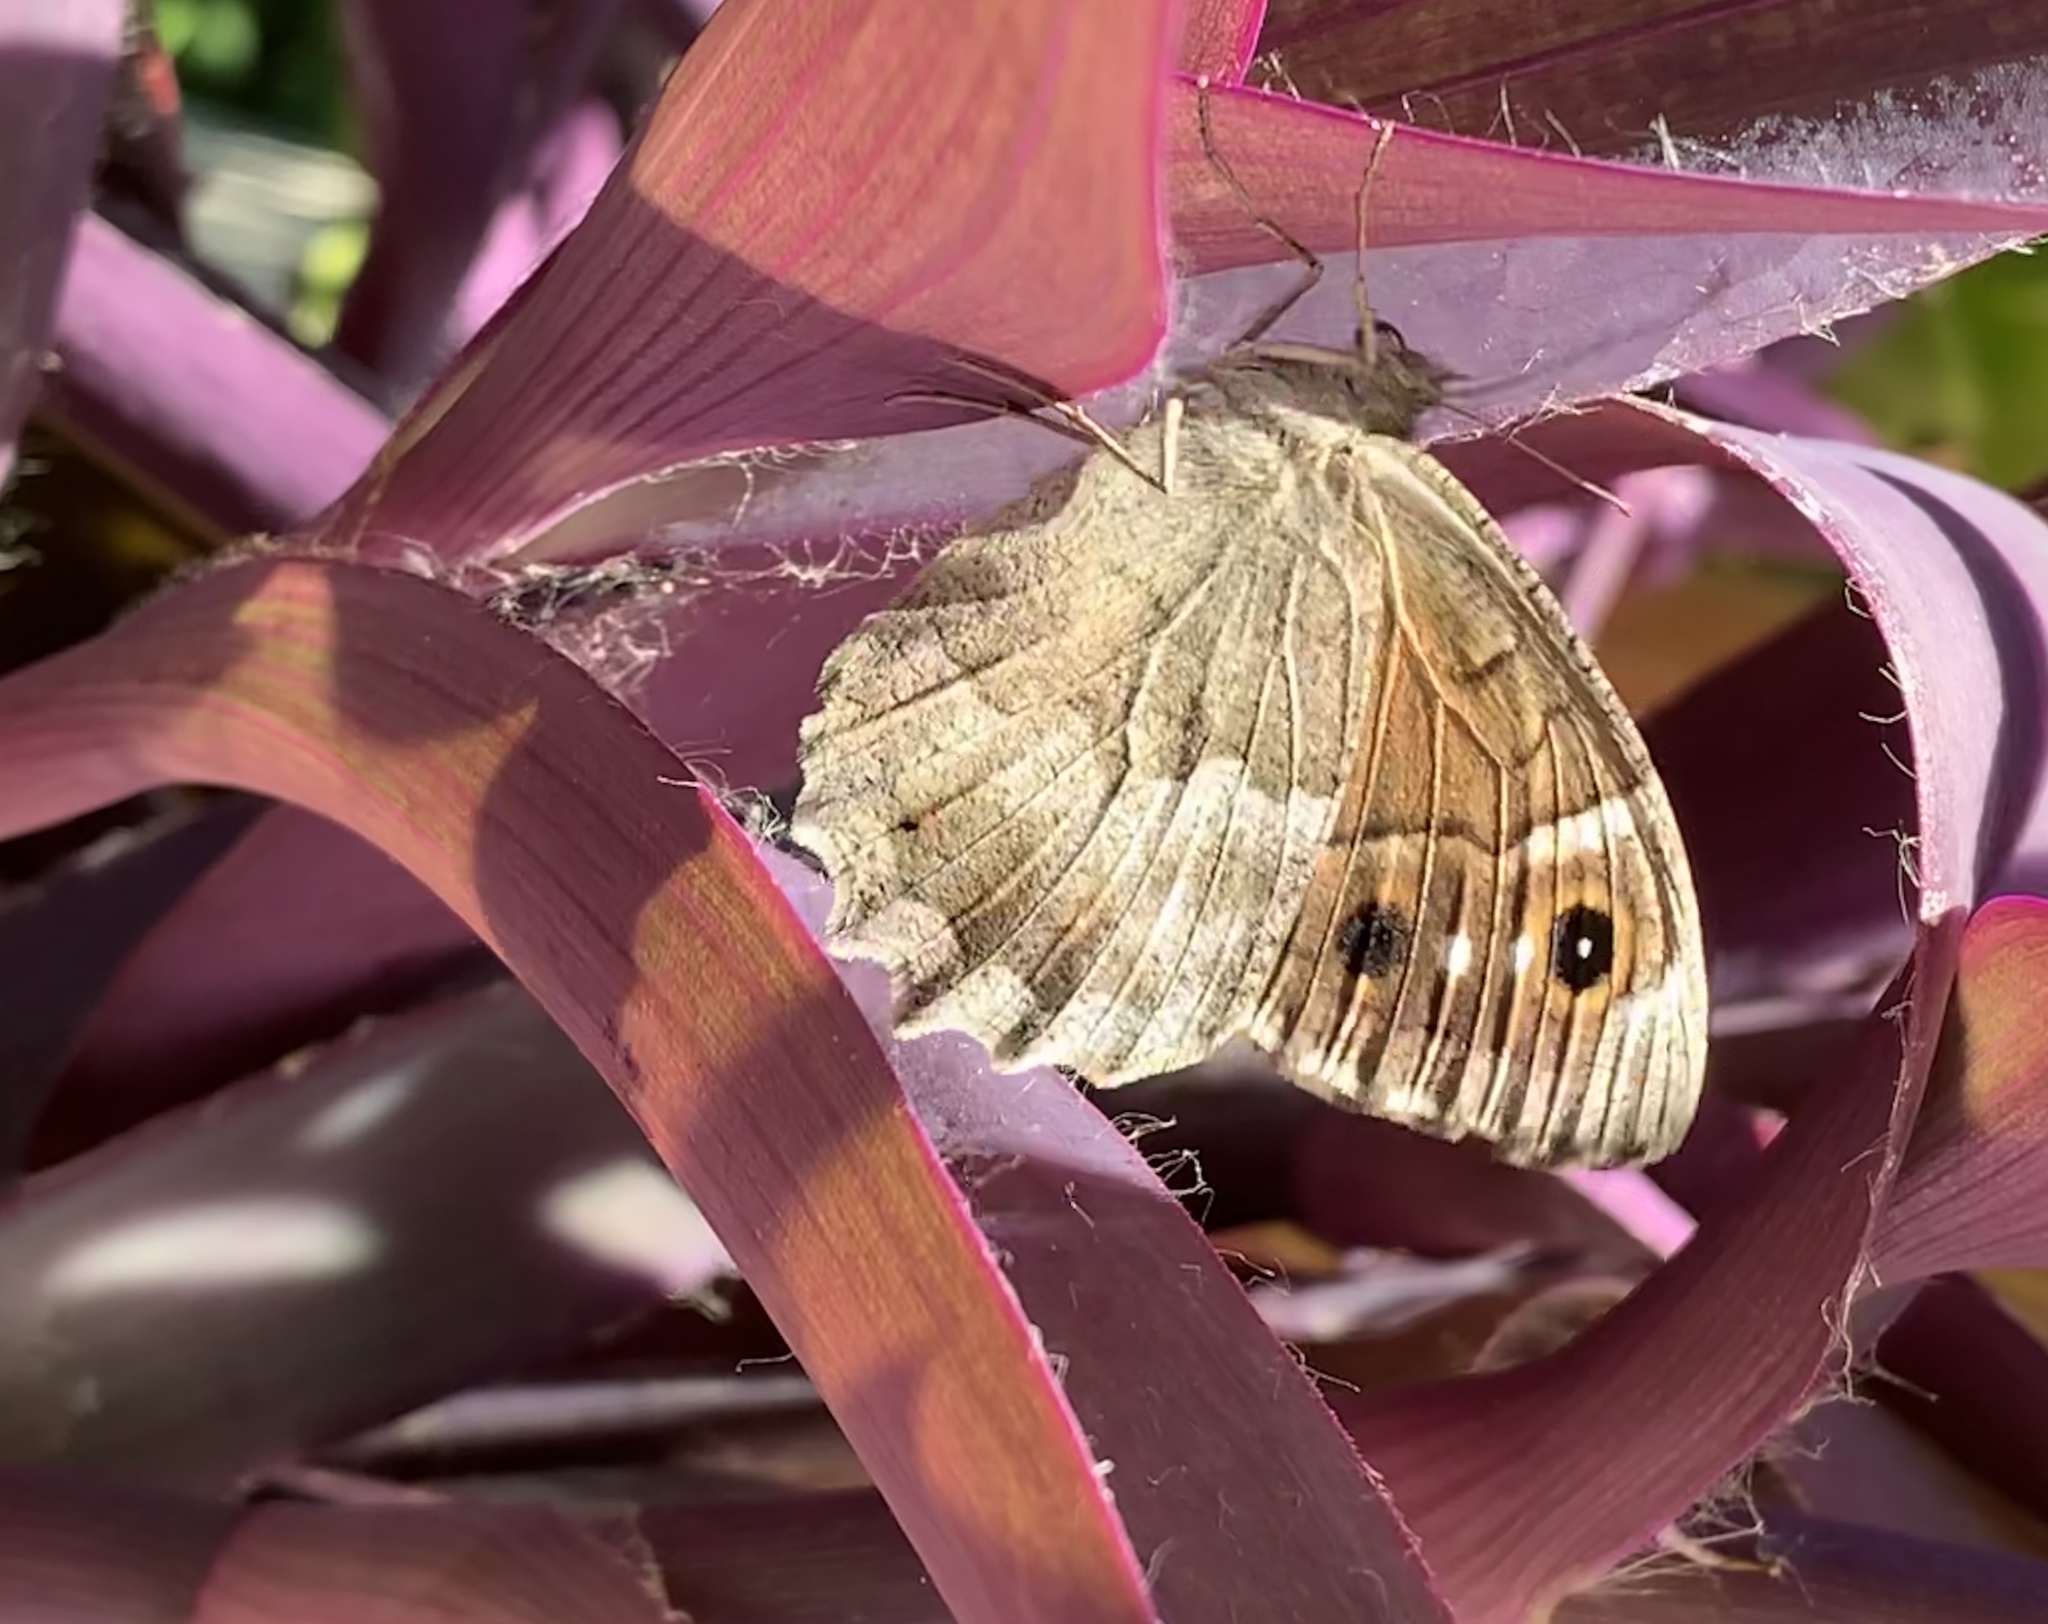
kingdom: Animalia
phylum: Arthropoda
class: Insecta
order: Lepidoptera
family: Nymphalidae
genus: Hipparchia
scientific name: Hipparchia statilinus
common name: Tree grayling
